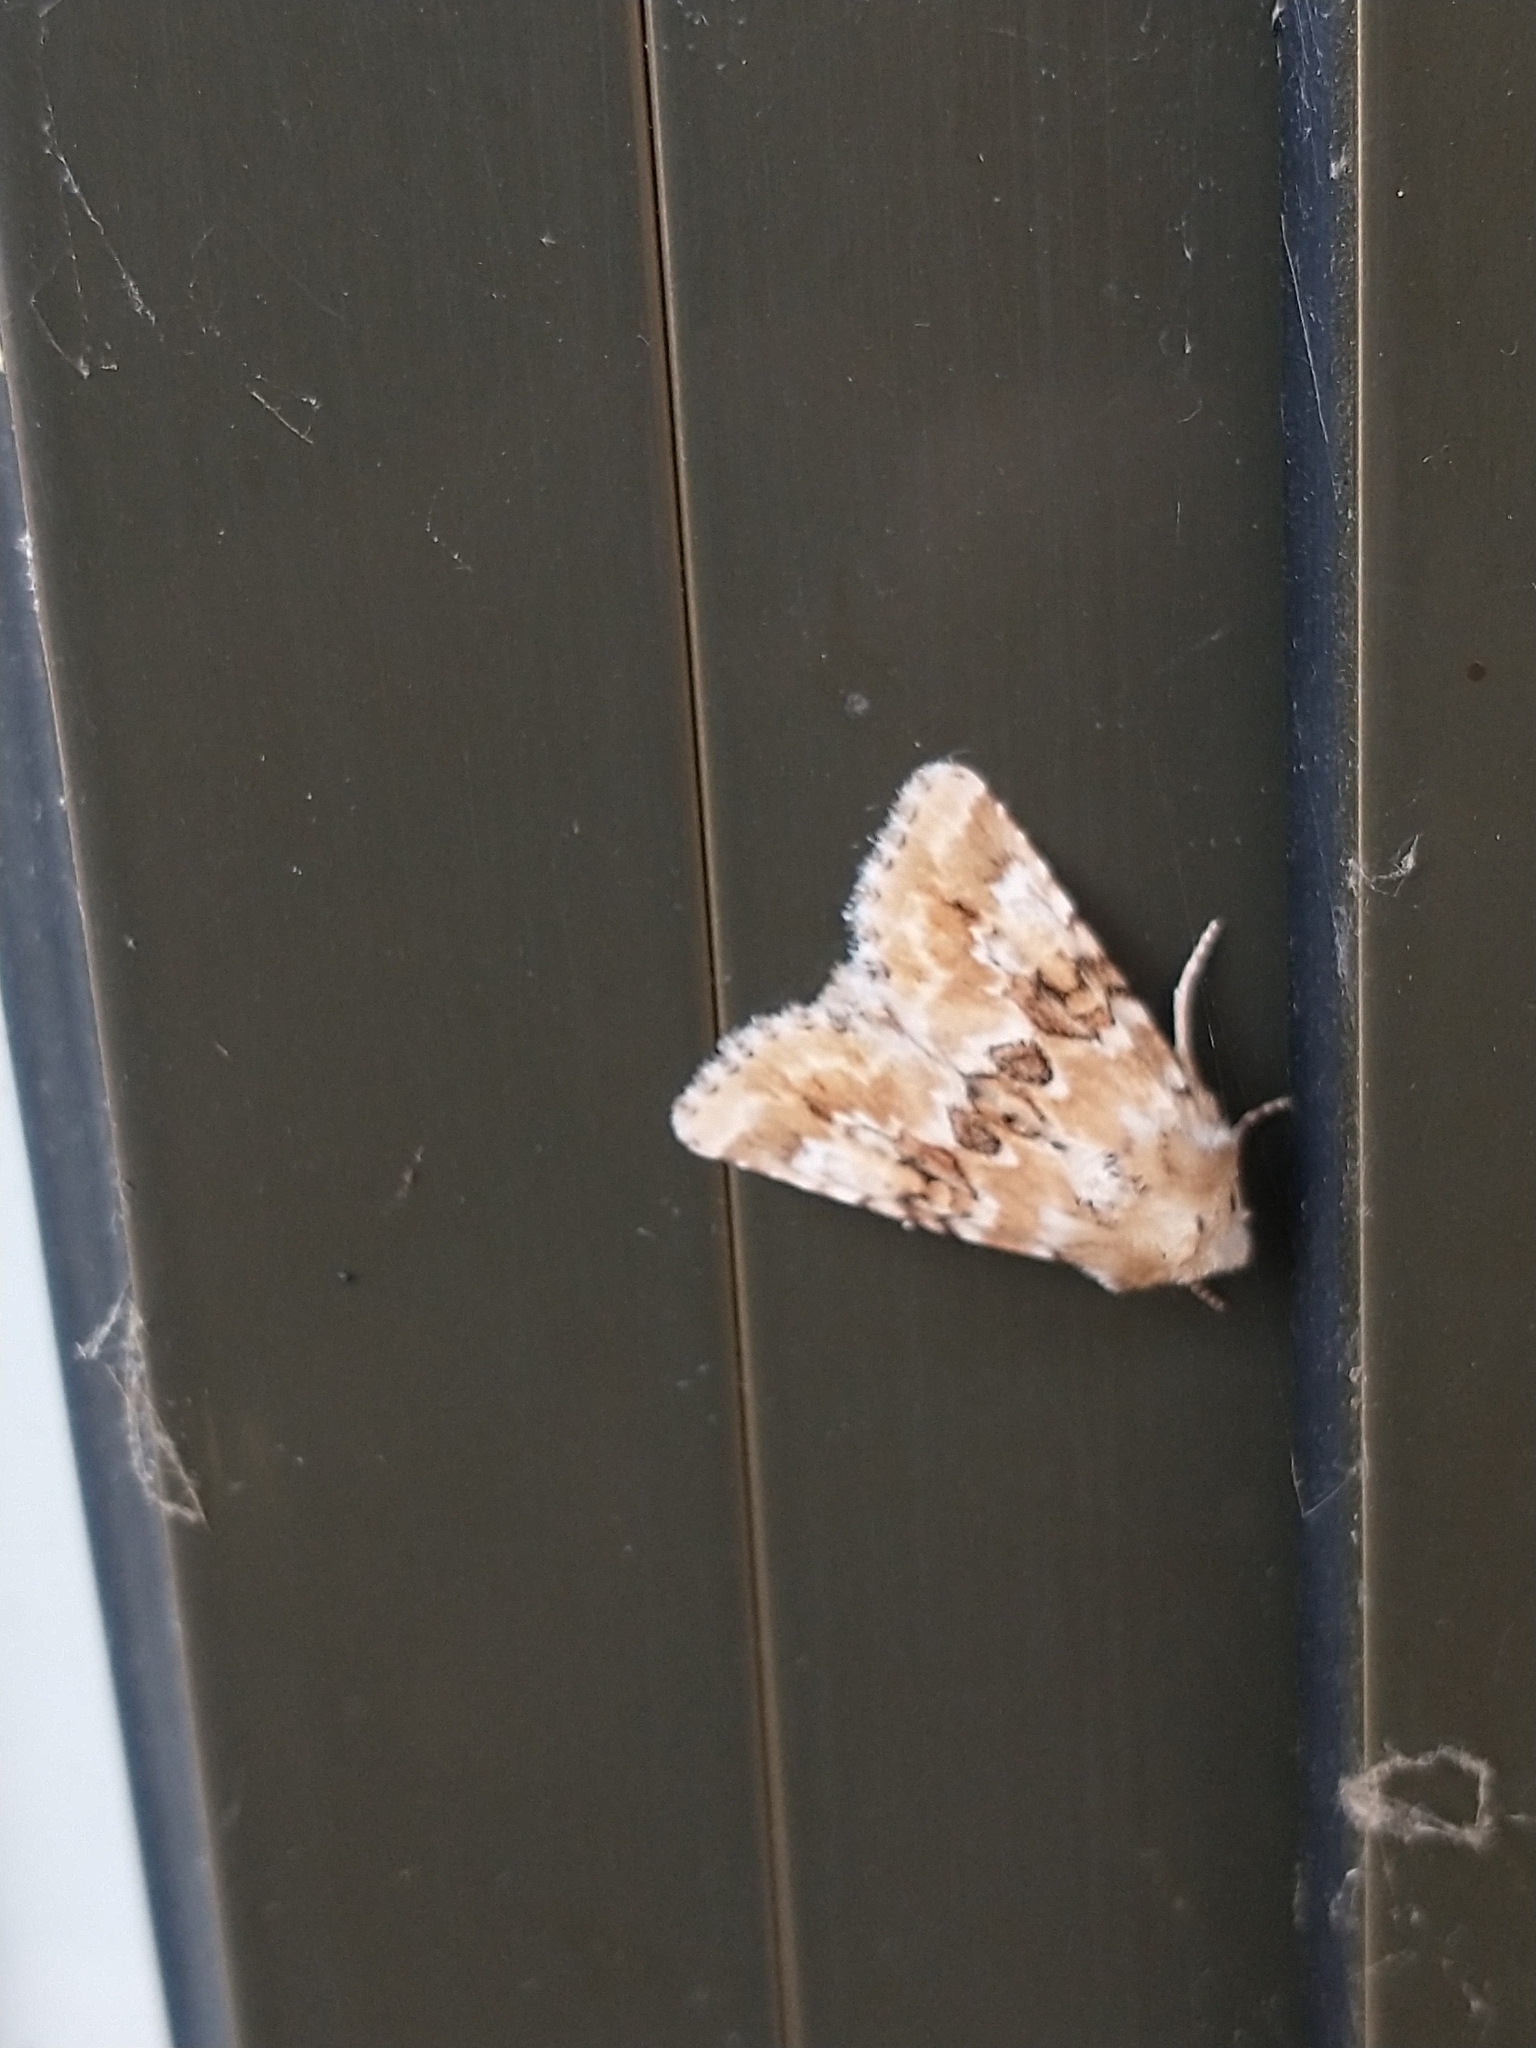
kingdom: Animalia
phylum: Arthropoda
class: Insecta
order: Lepidoptera
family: Noctuidae
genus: Eremobia
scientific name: Eremobia ochroleuca
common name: Dusky sallow
